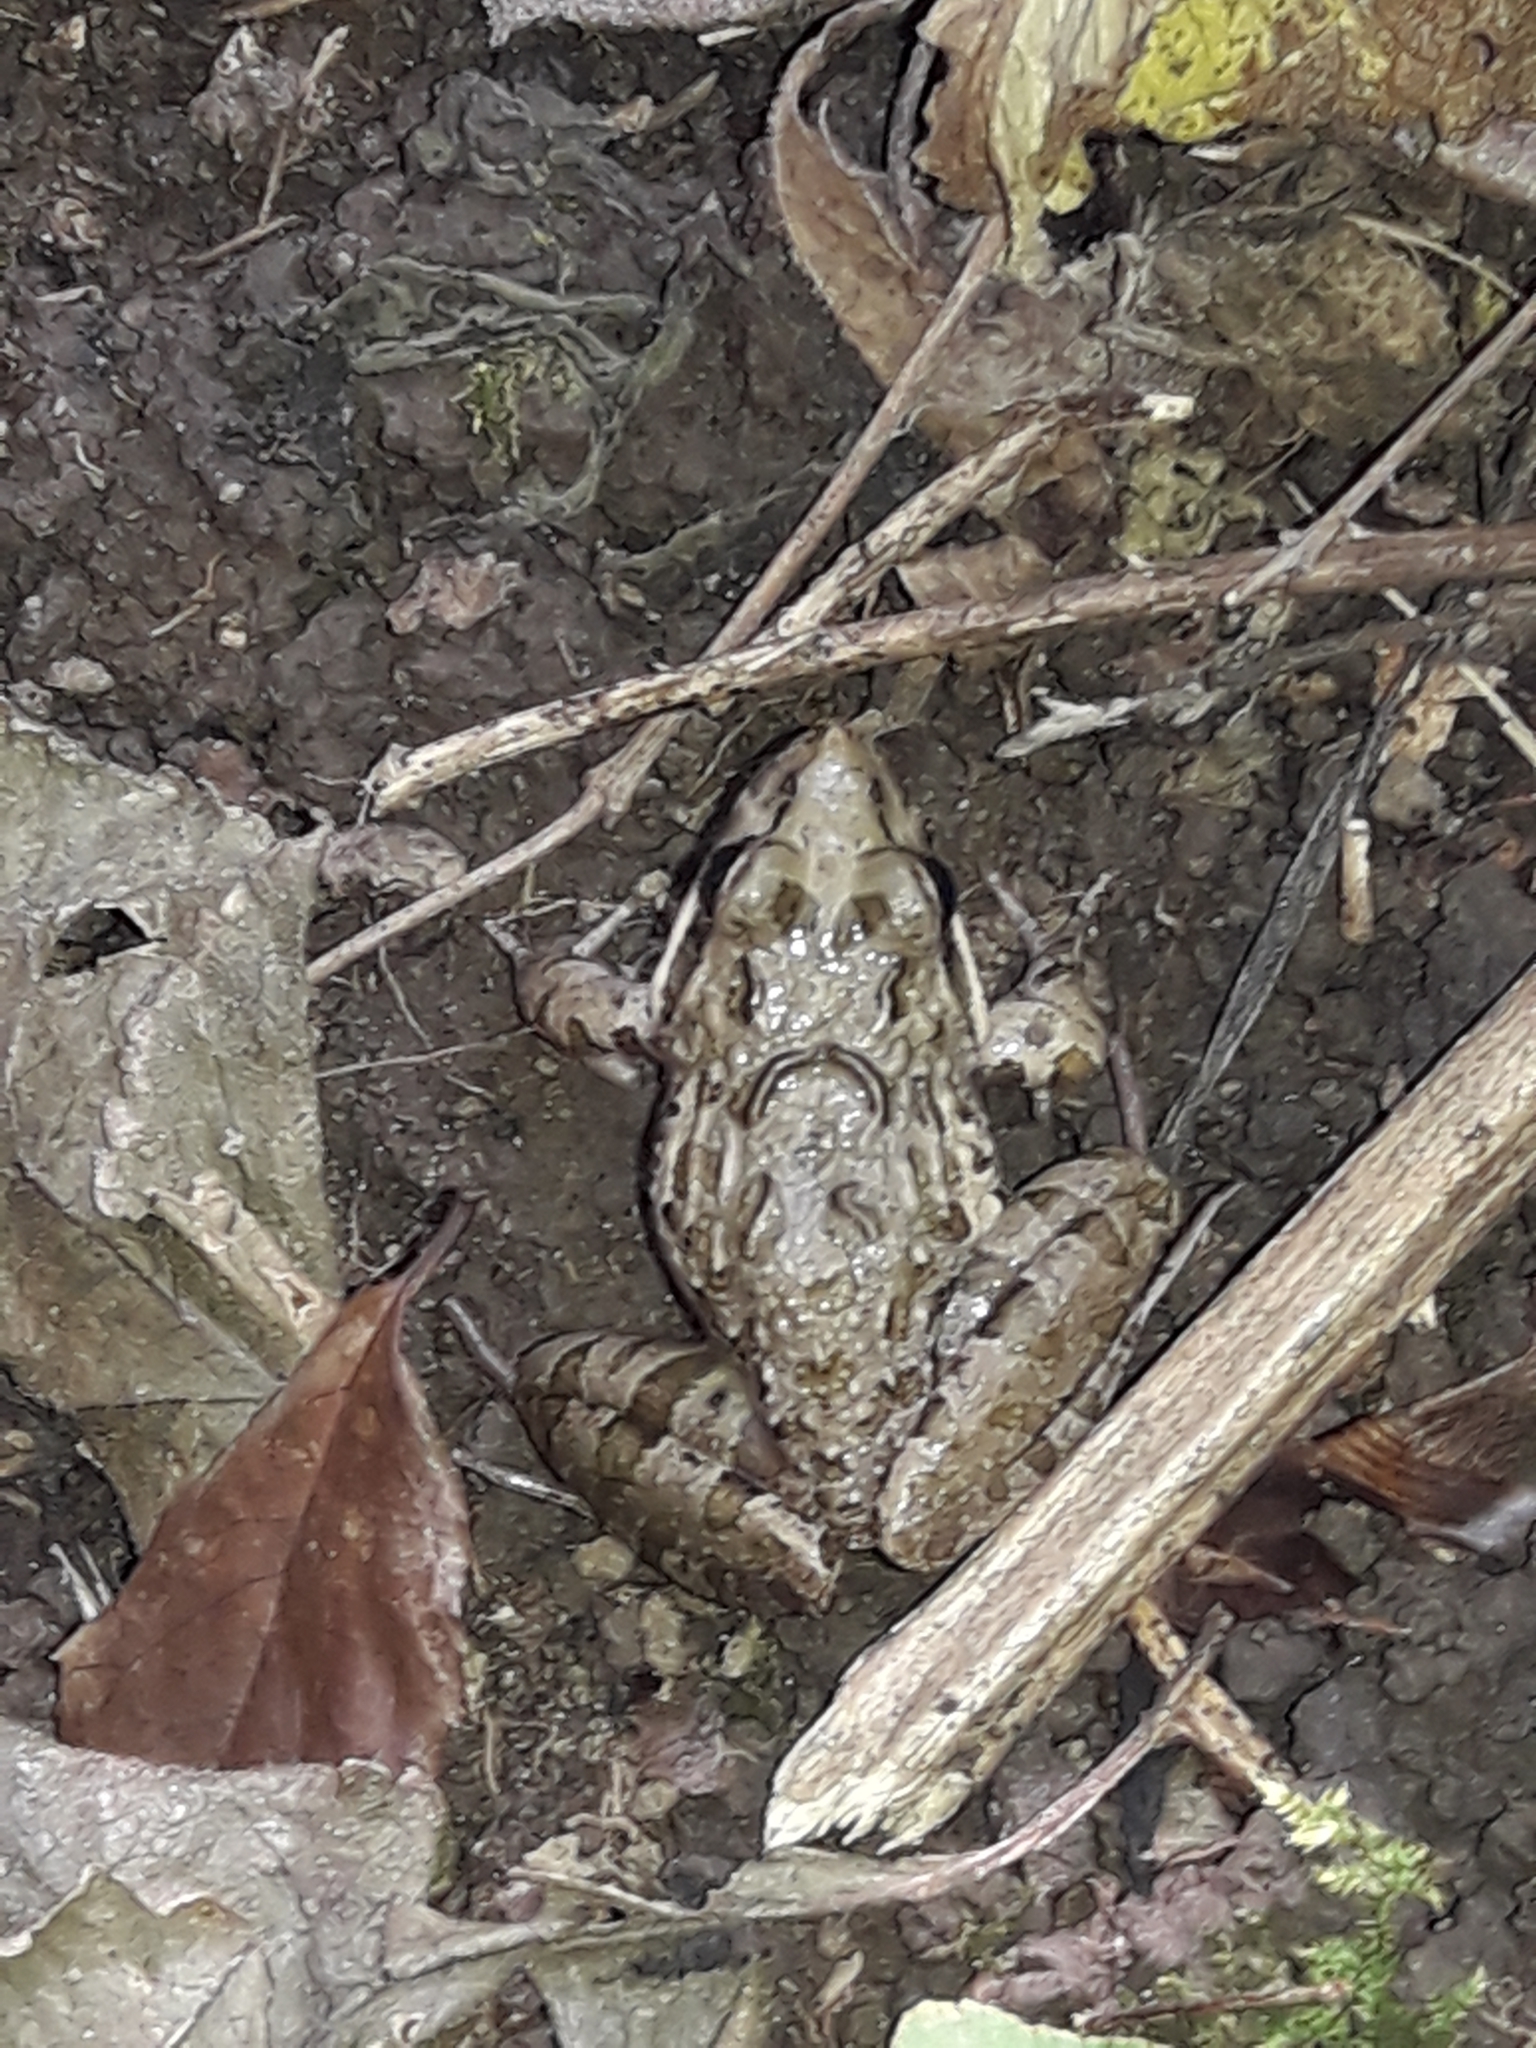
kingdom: Animalia
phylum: Chordata
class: Amphibia
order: Anura
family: Pyxicephalidae
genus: Strongylopus
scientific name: Strongylopus grayii
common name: Gray's stream frog
